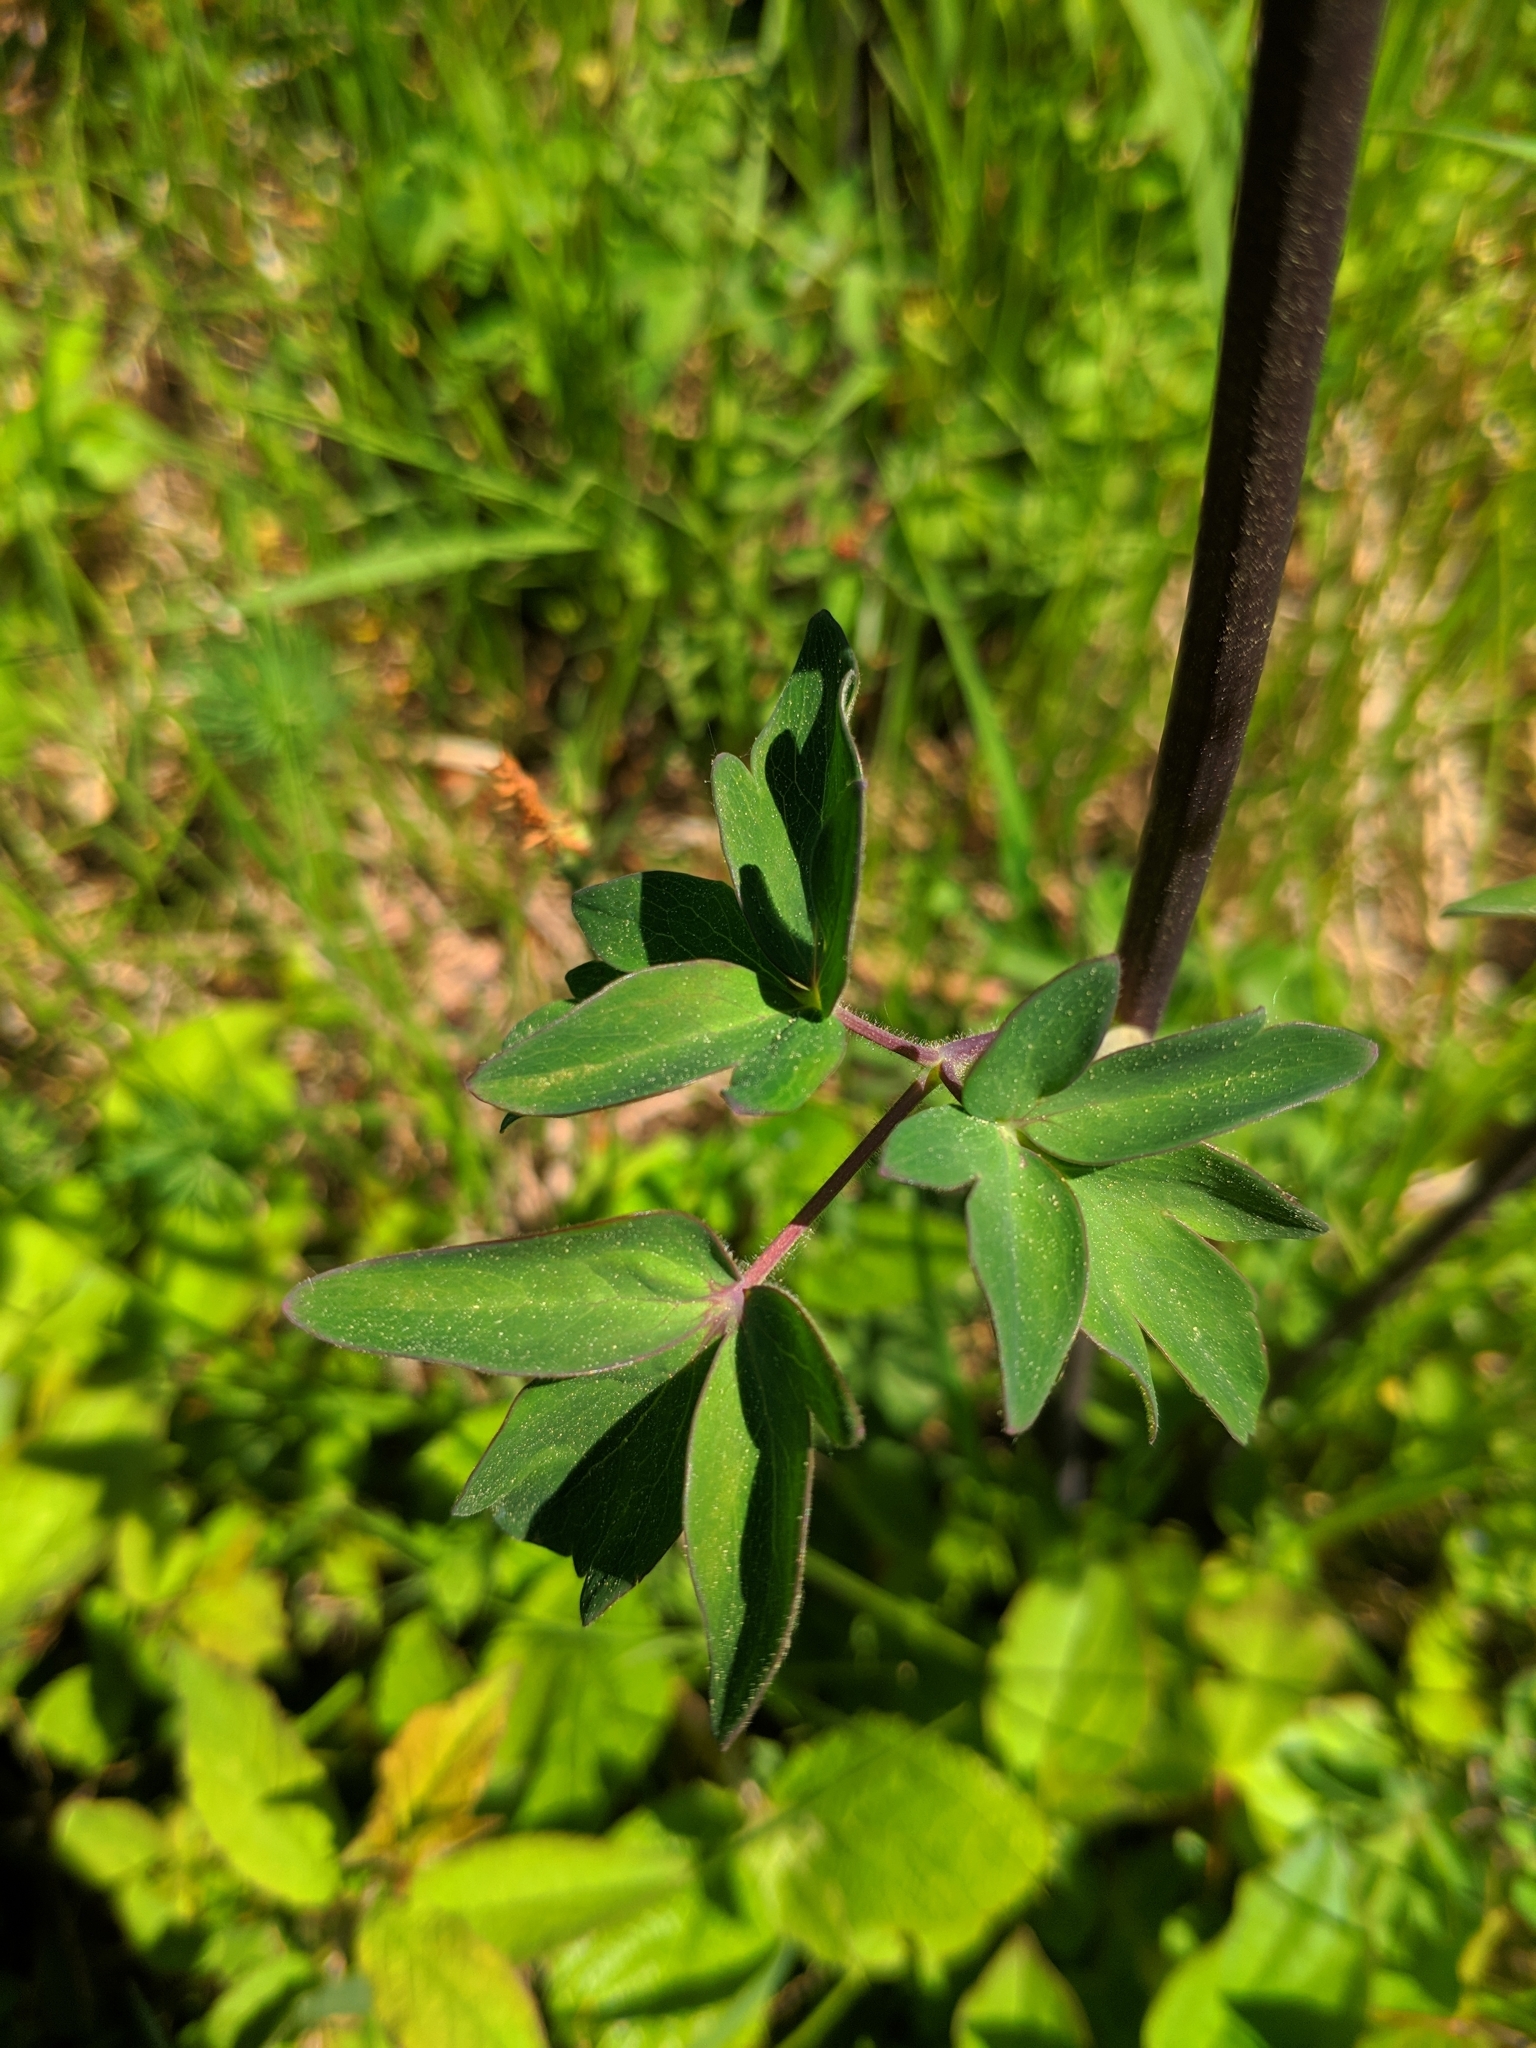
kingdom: Plantae
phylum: Tracheophyta
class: Magnoliopsida
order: Ranunculales
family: Ranunculaceae
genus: Aquilegia
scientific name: Aquilegia vulgaris
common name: Columbine
